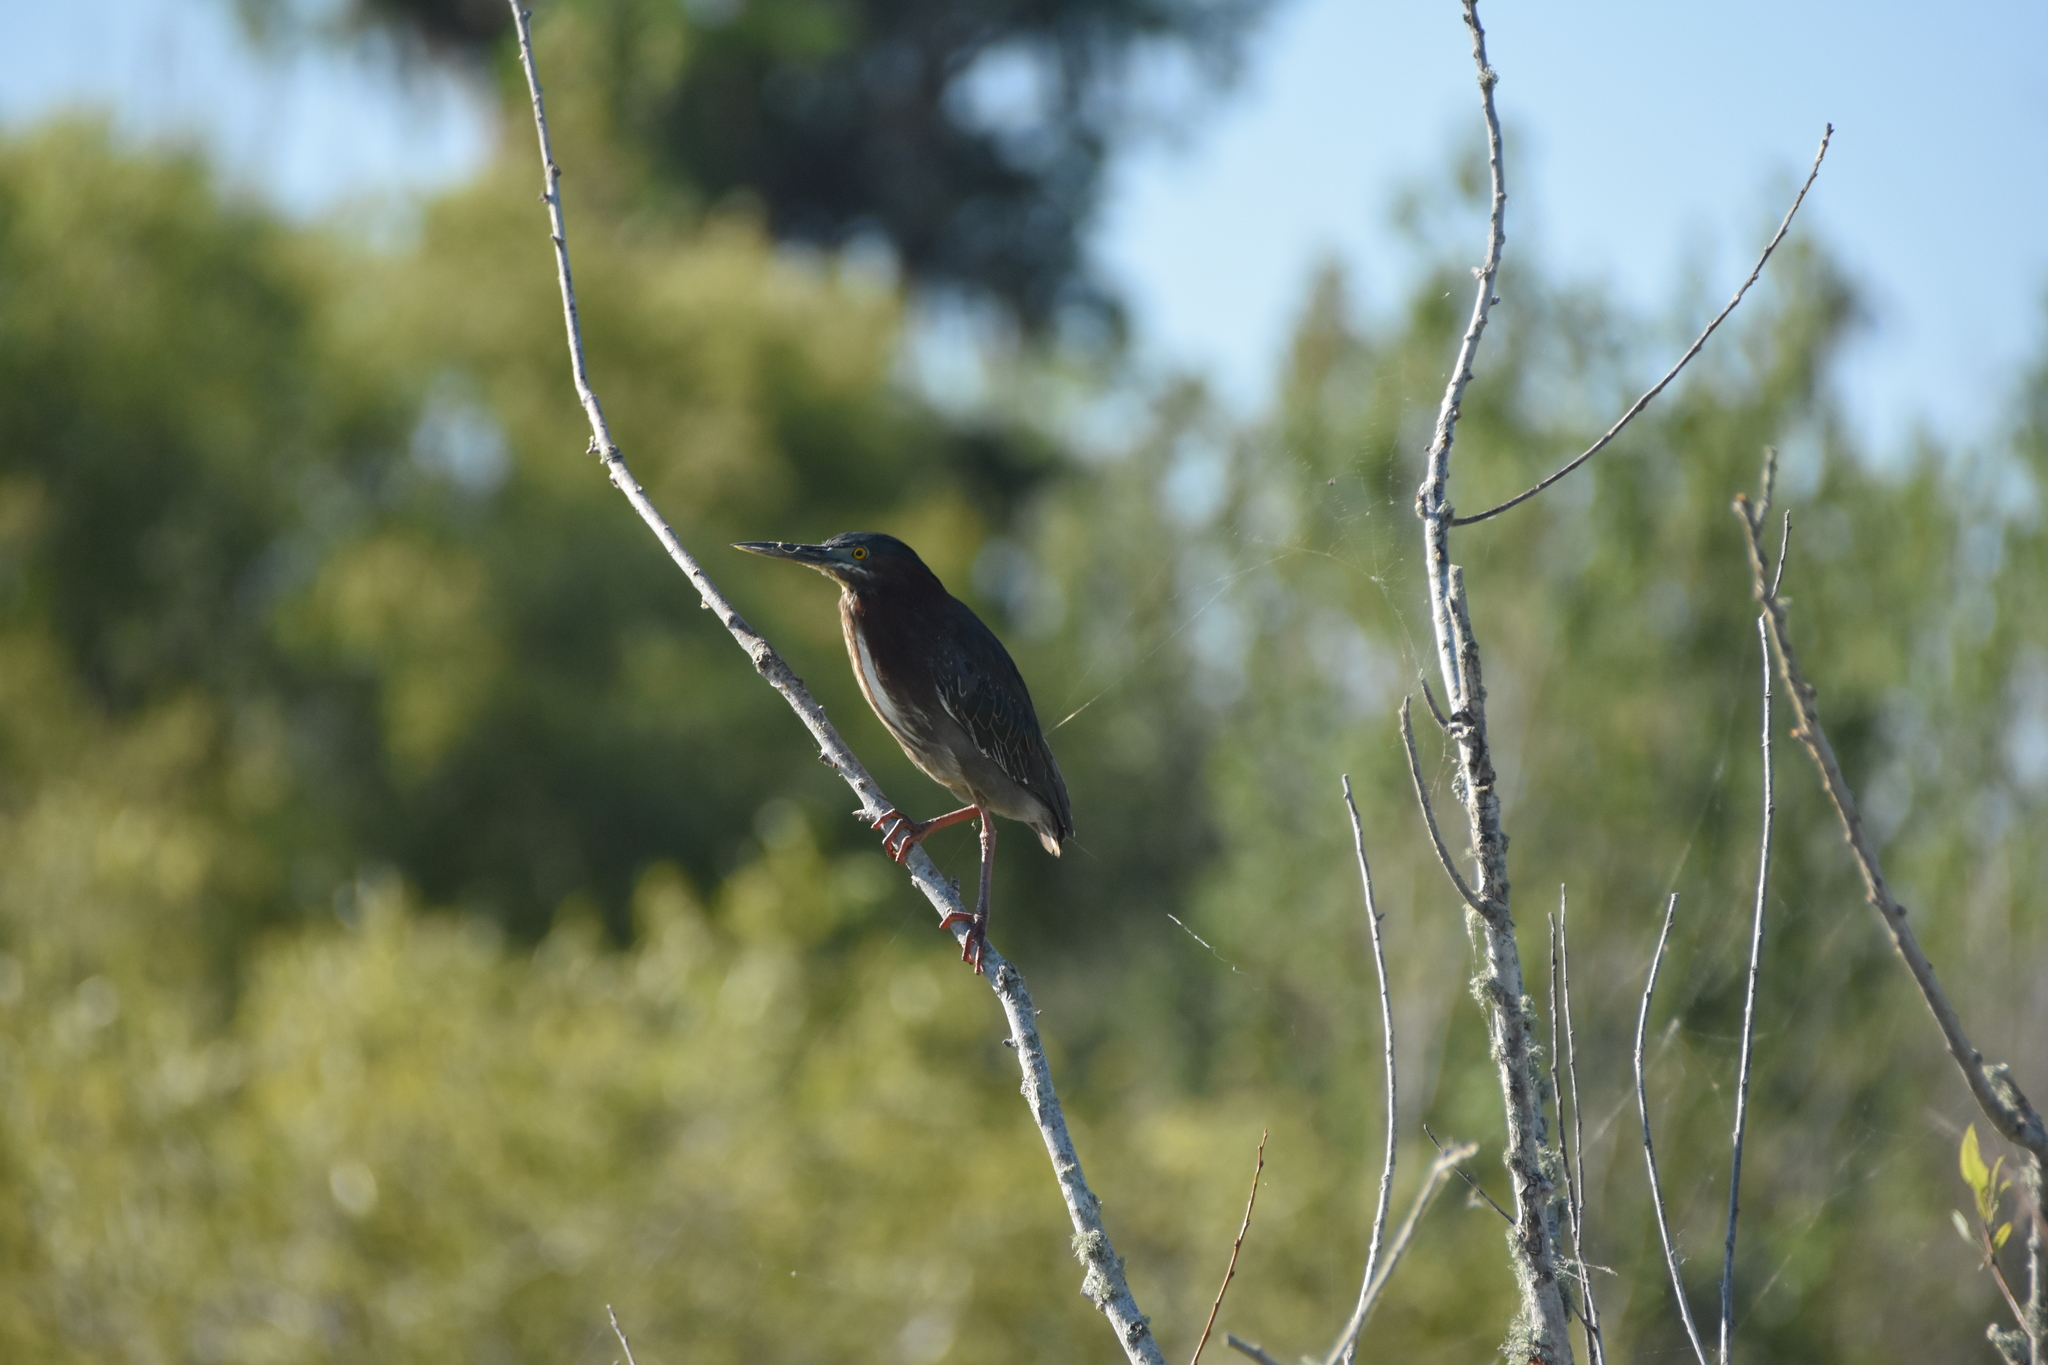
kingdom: Animalia
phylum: Chordata
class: Aves
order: Pelecaniformes
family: Ardeidae
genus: Butorides
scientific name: Butorides virescens
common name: Green heron
